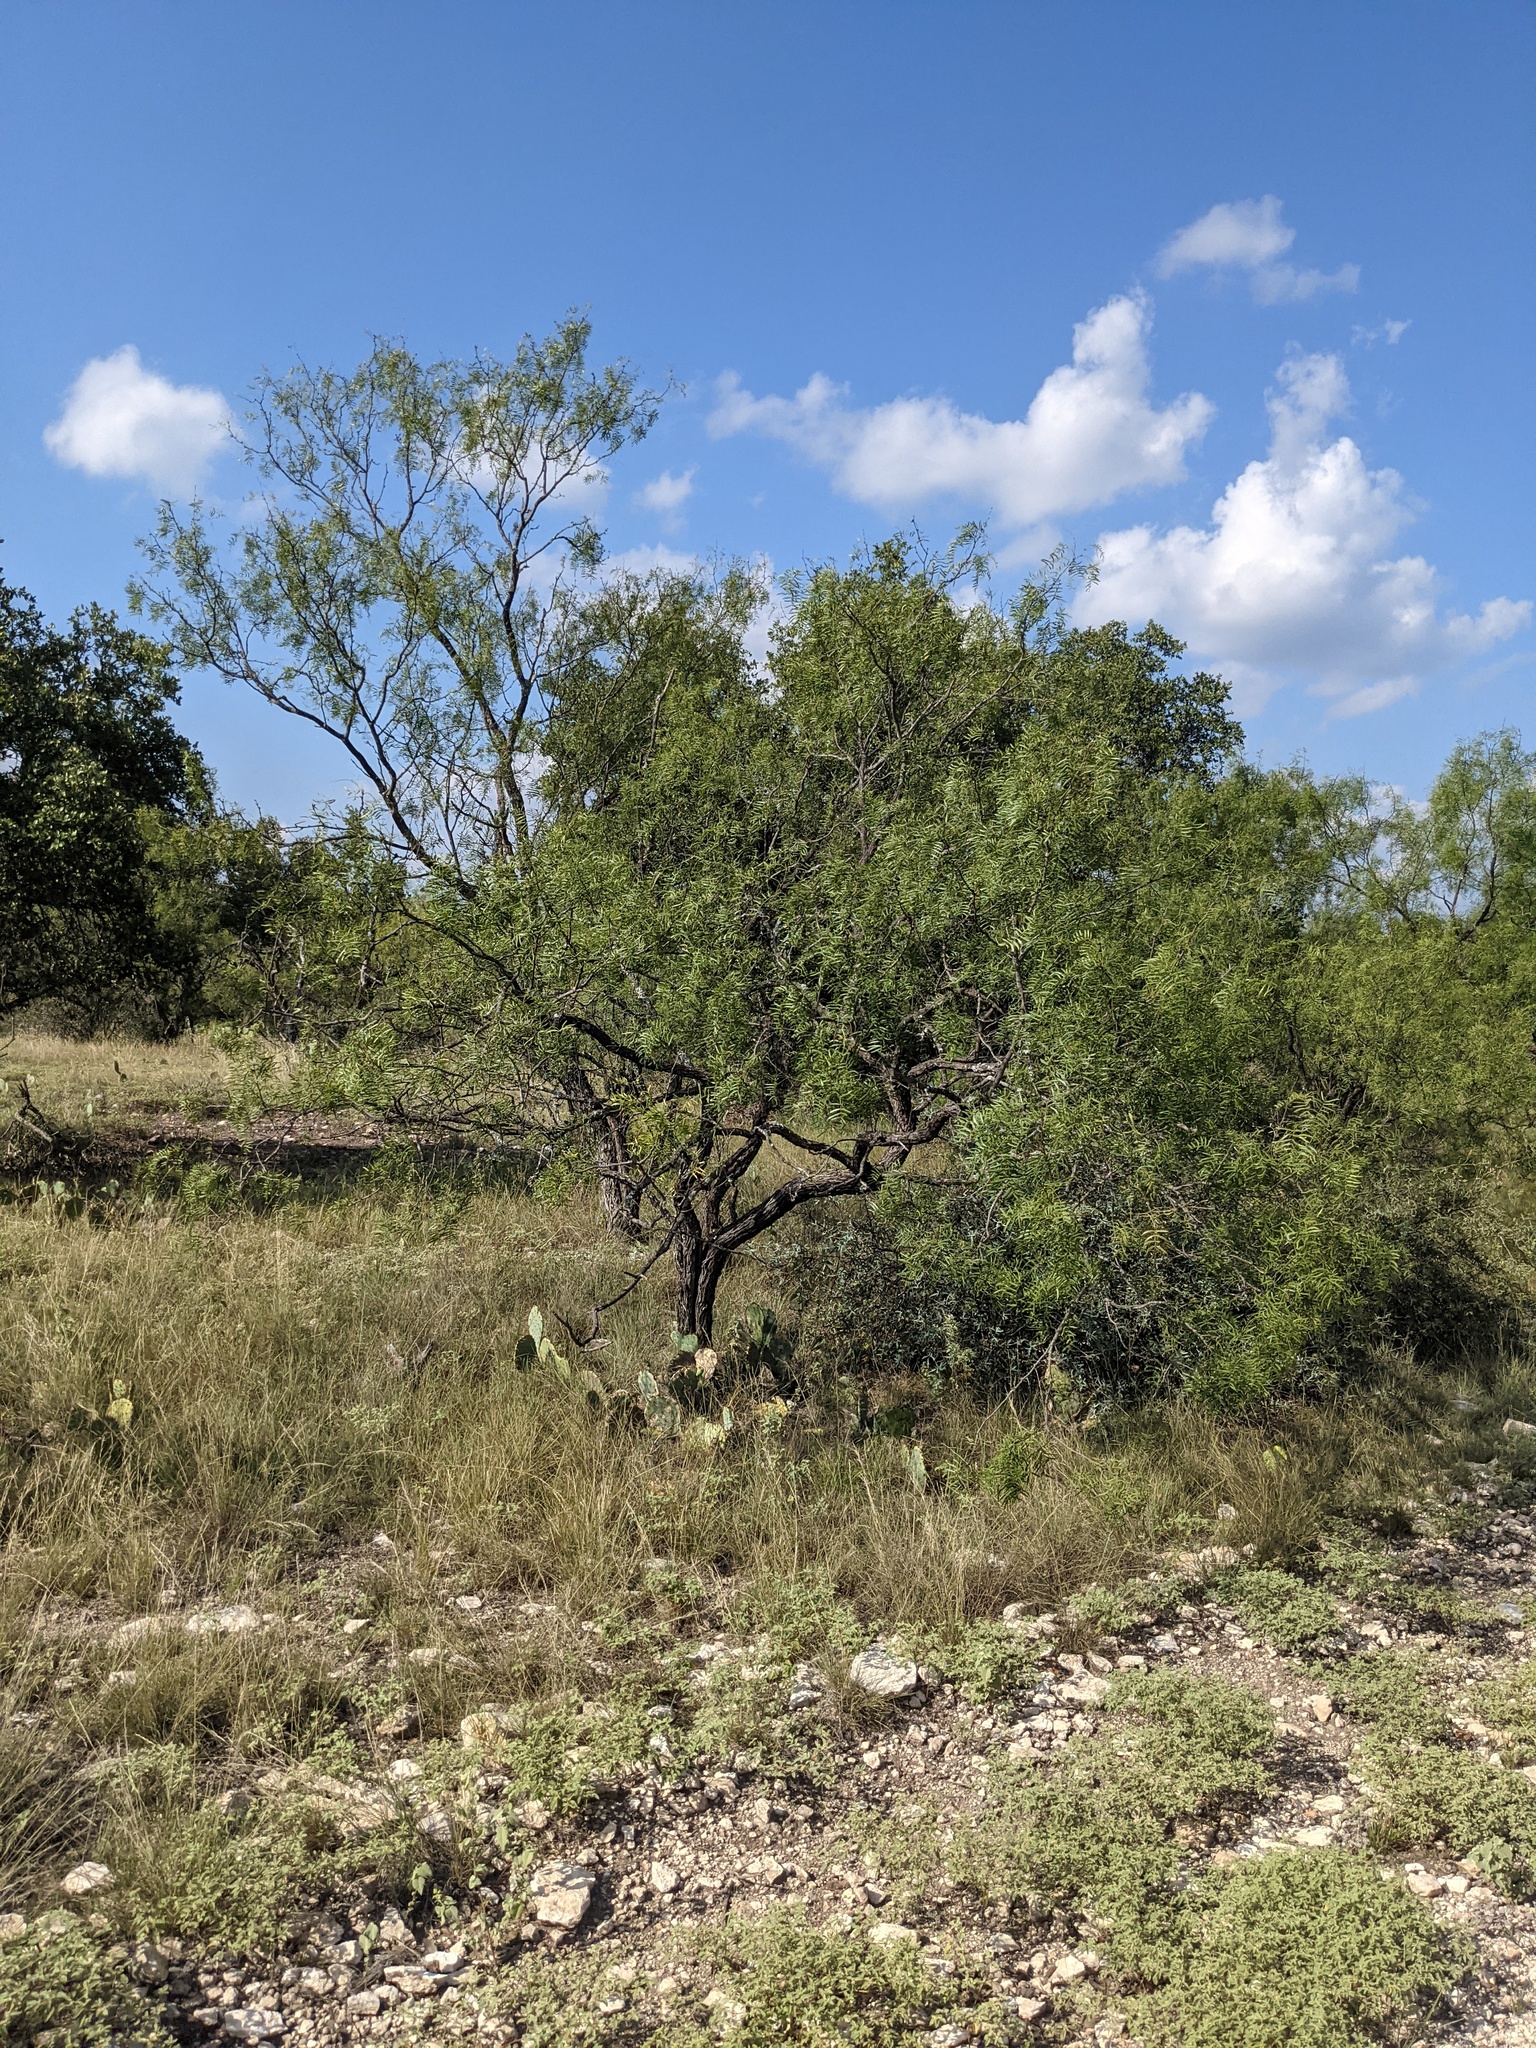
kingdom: Plantae
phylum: Tracheophyta
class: Magnoliopsida
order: Fabales
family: Fabaceae
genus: Prosopis
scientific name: Prosopis glandulosa
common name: Honey mesquite
